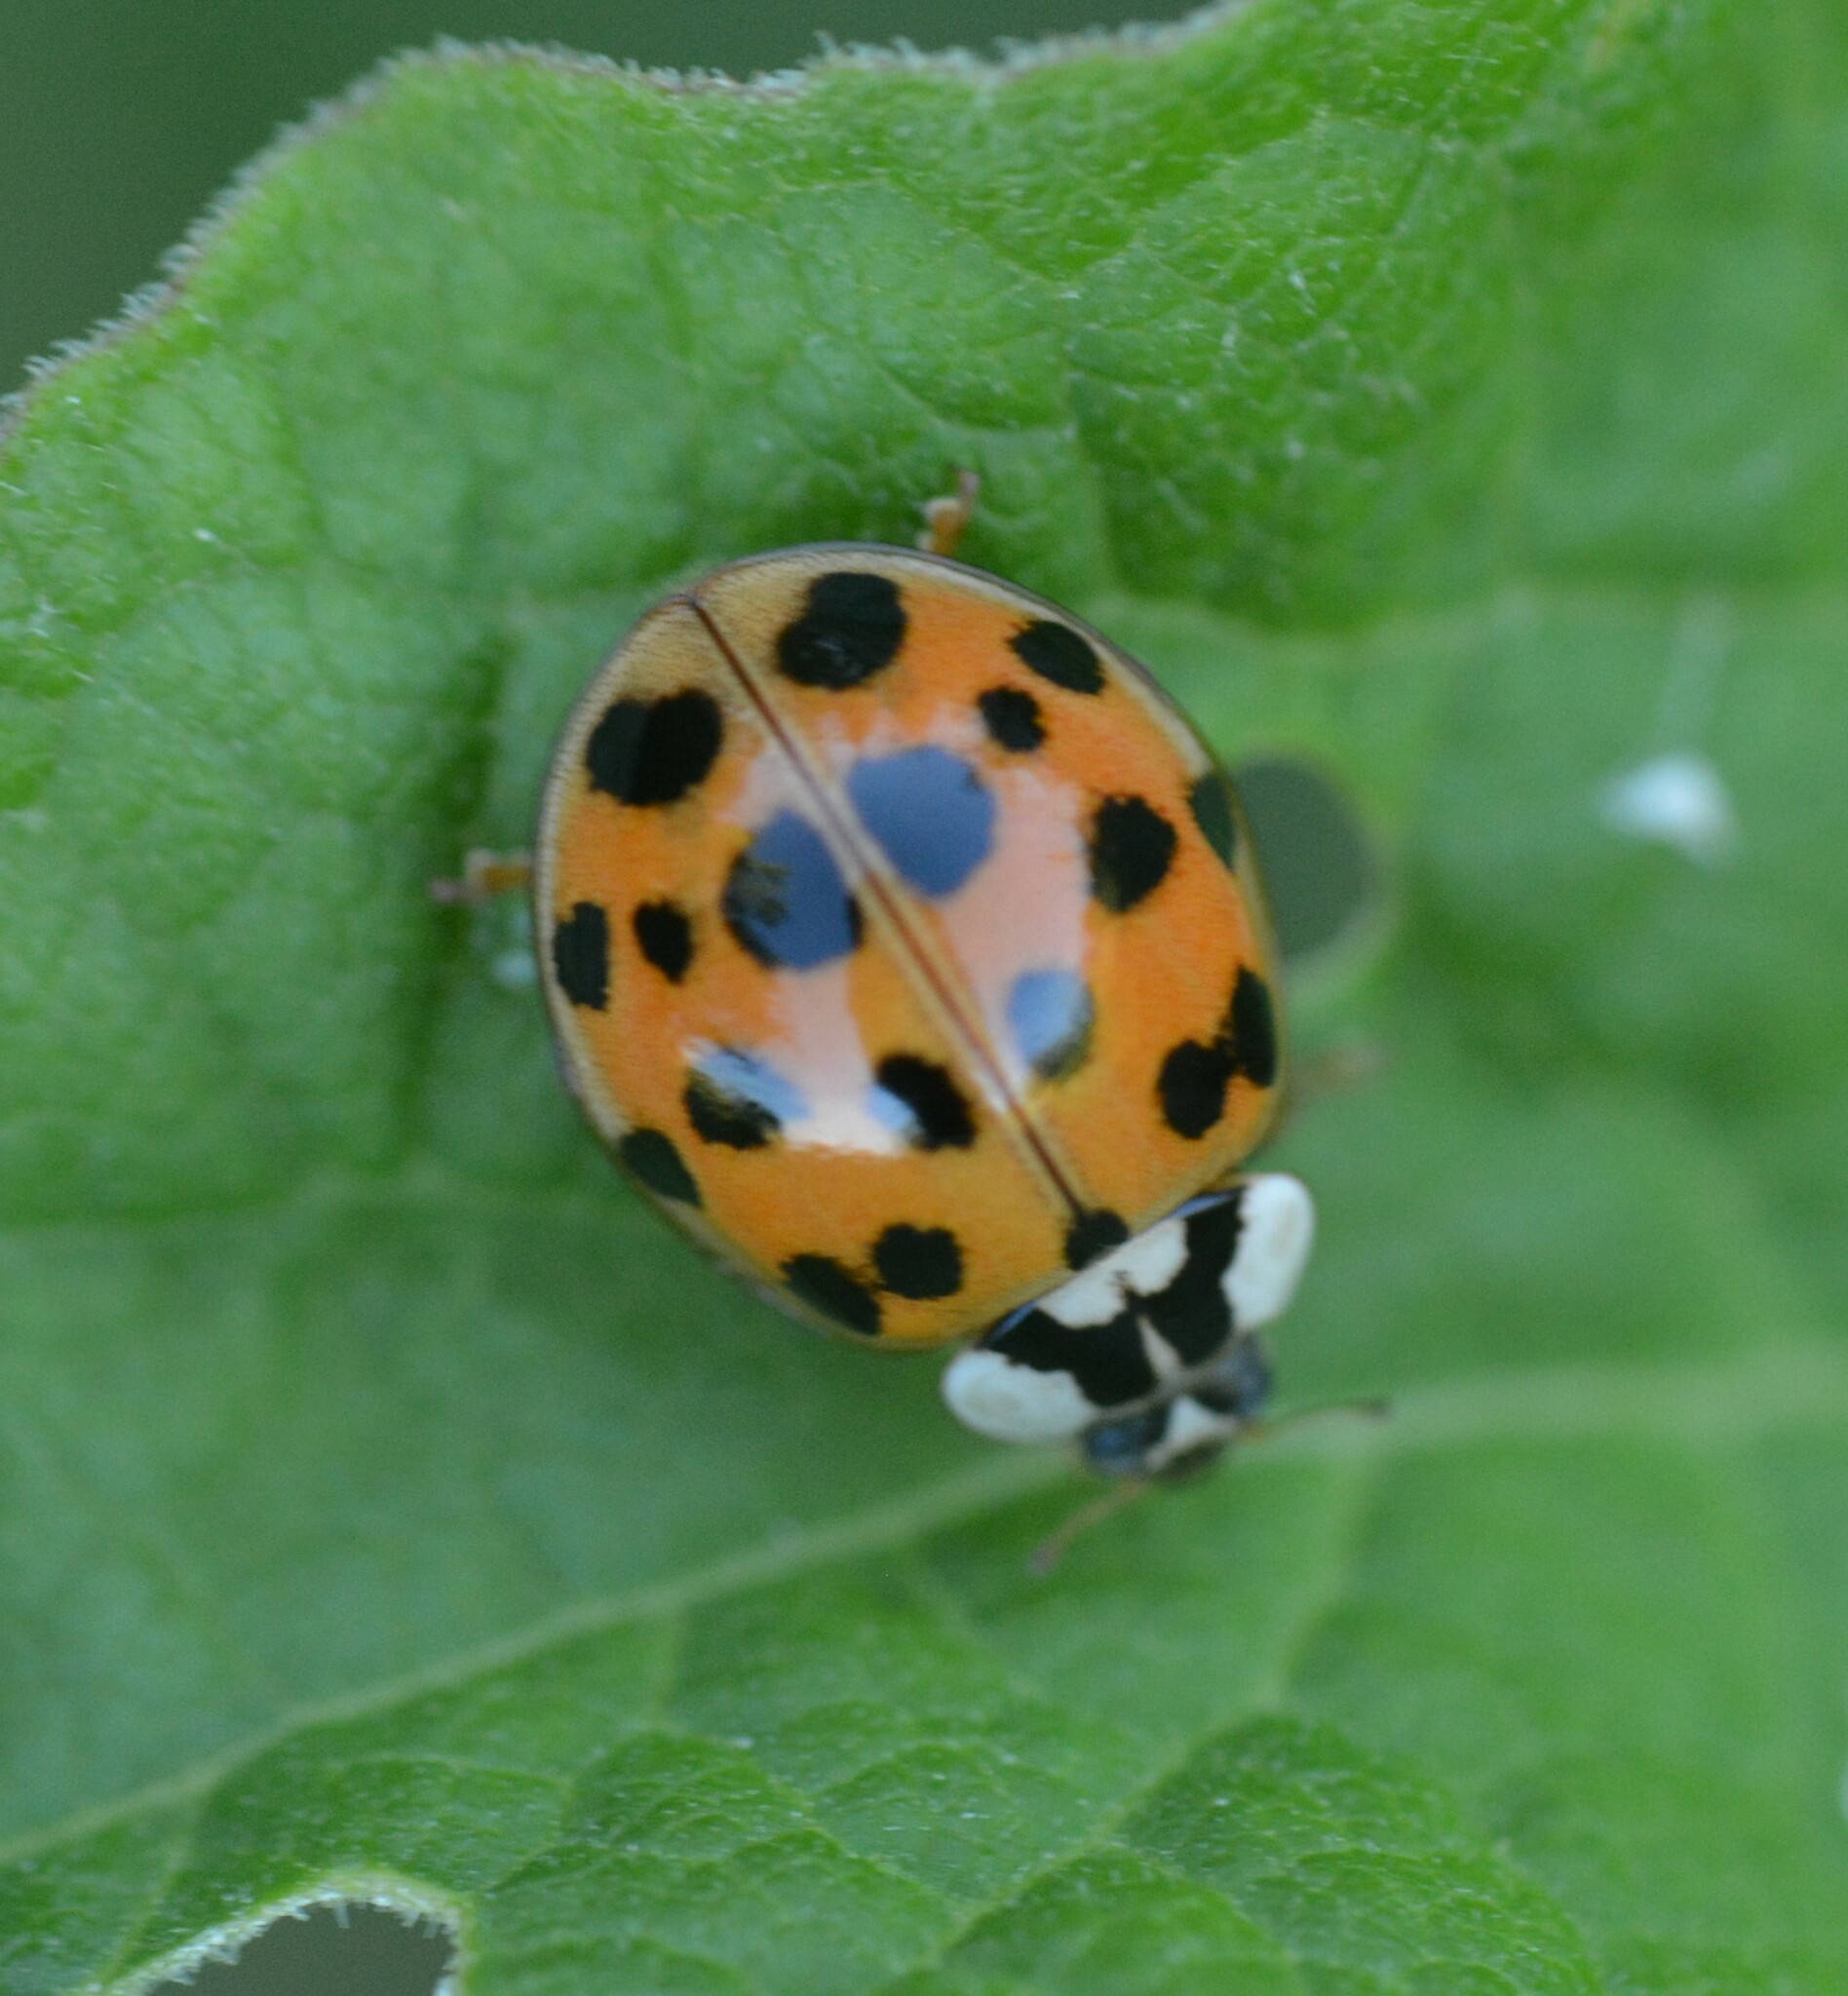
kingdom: Animalia
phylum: Arthropoda
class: Insecta
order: Coleoptera
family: Coccinellidae
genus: Harmonia
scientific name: Harmonia axyridis
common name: Harlequin ladybird
